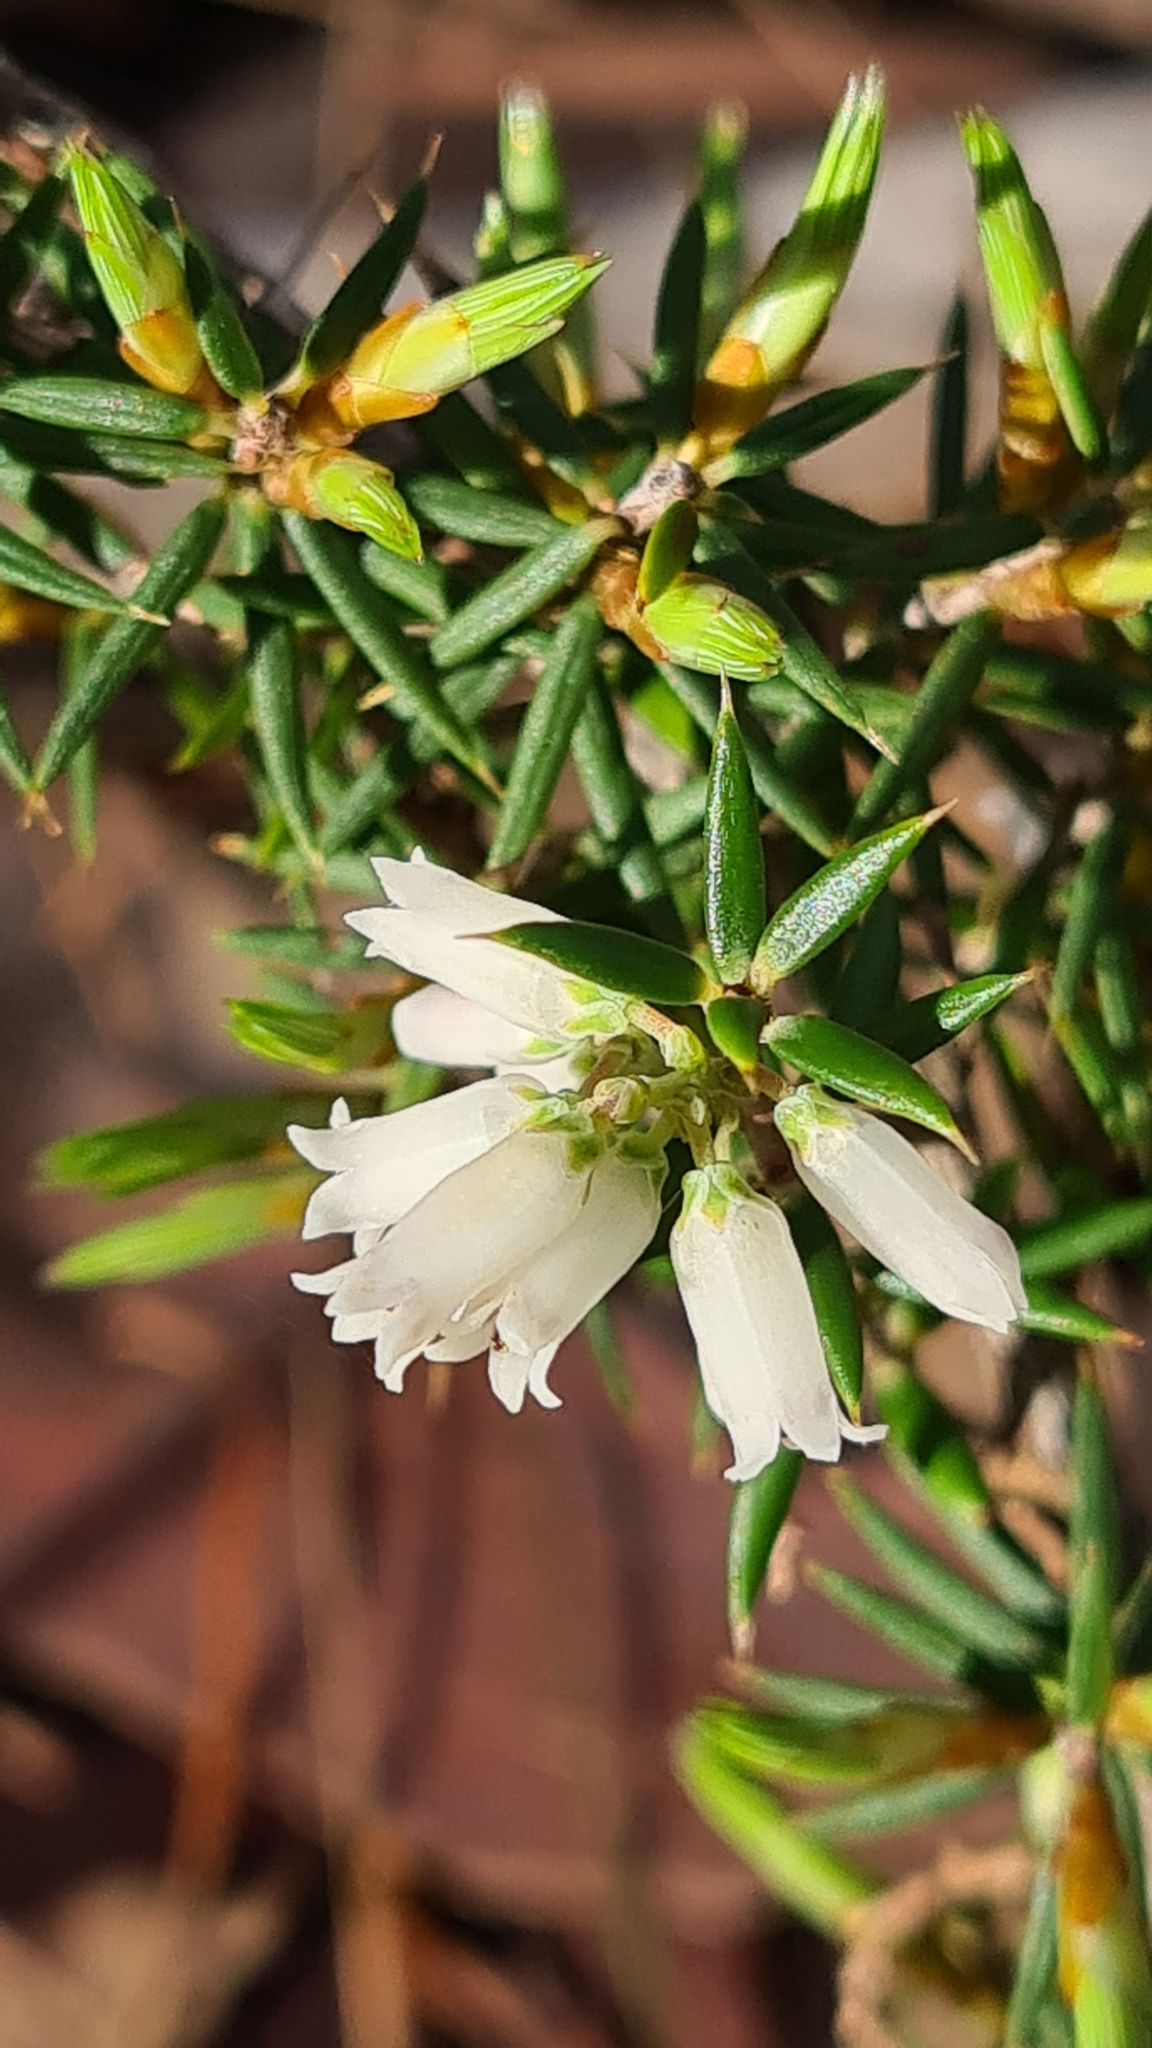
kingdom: Plantae
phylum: Tracheophyta
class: Magnoliopsida
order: Ericales
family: Ericaceae
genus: Lissanthe
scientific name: Lissanthe strigosa
